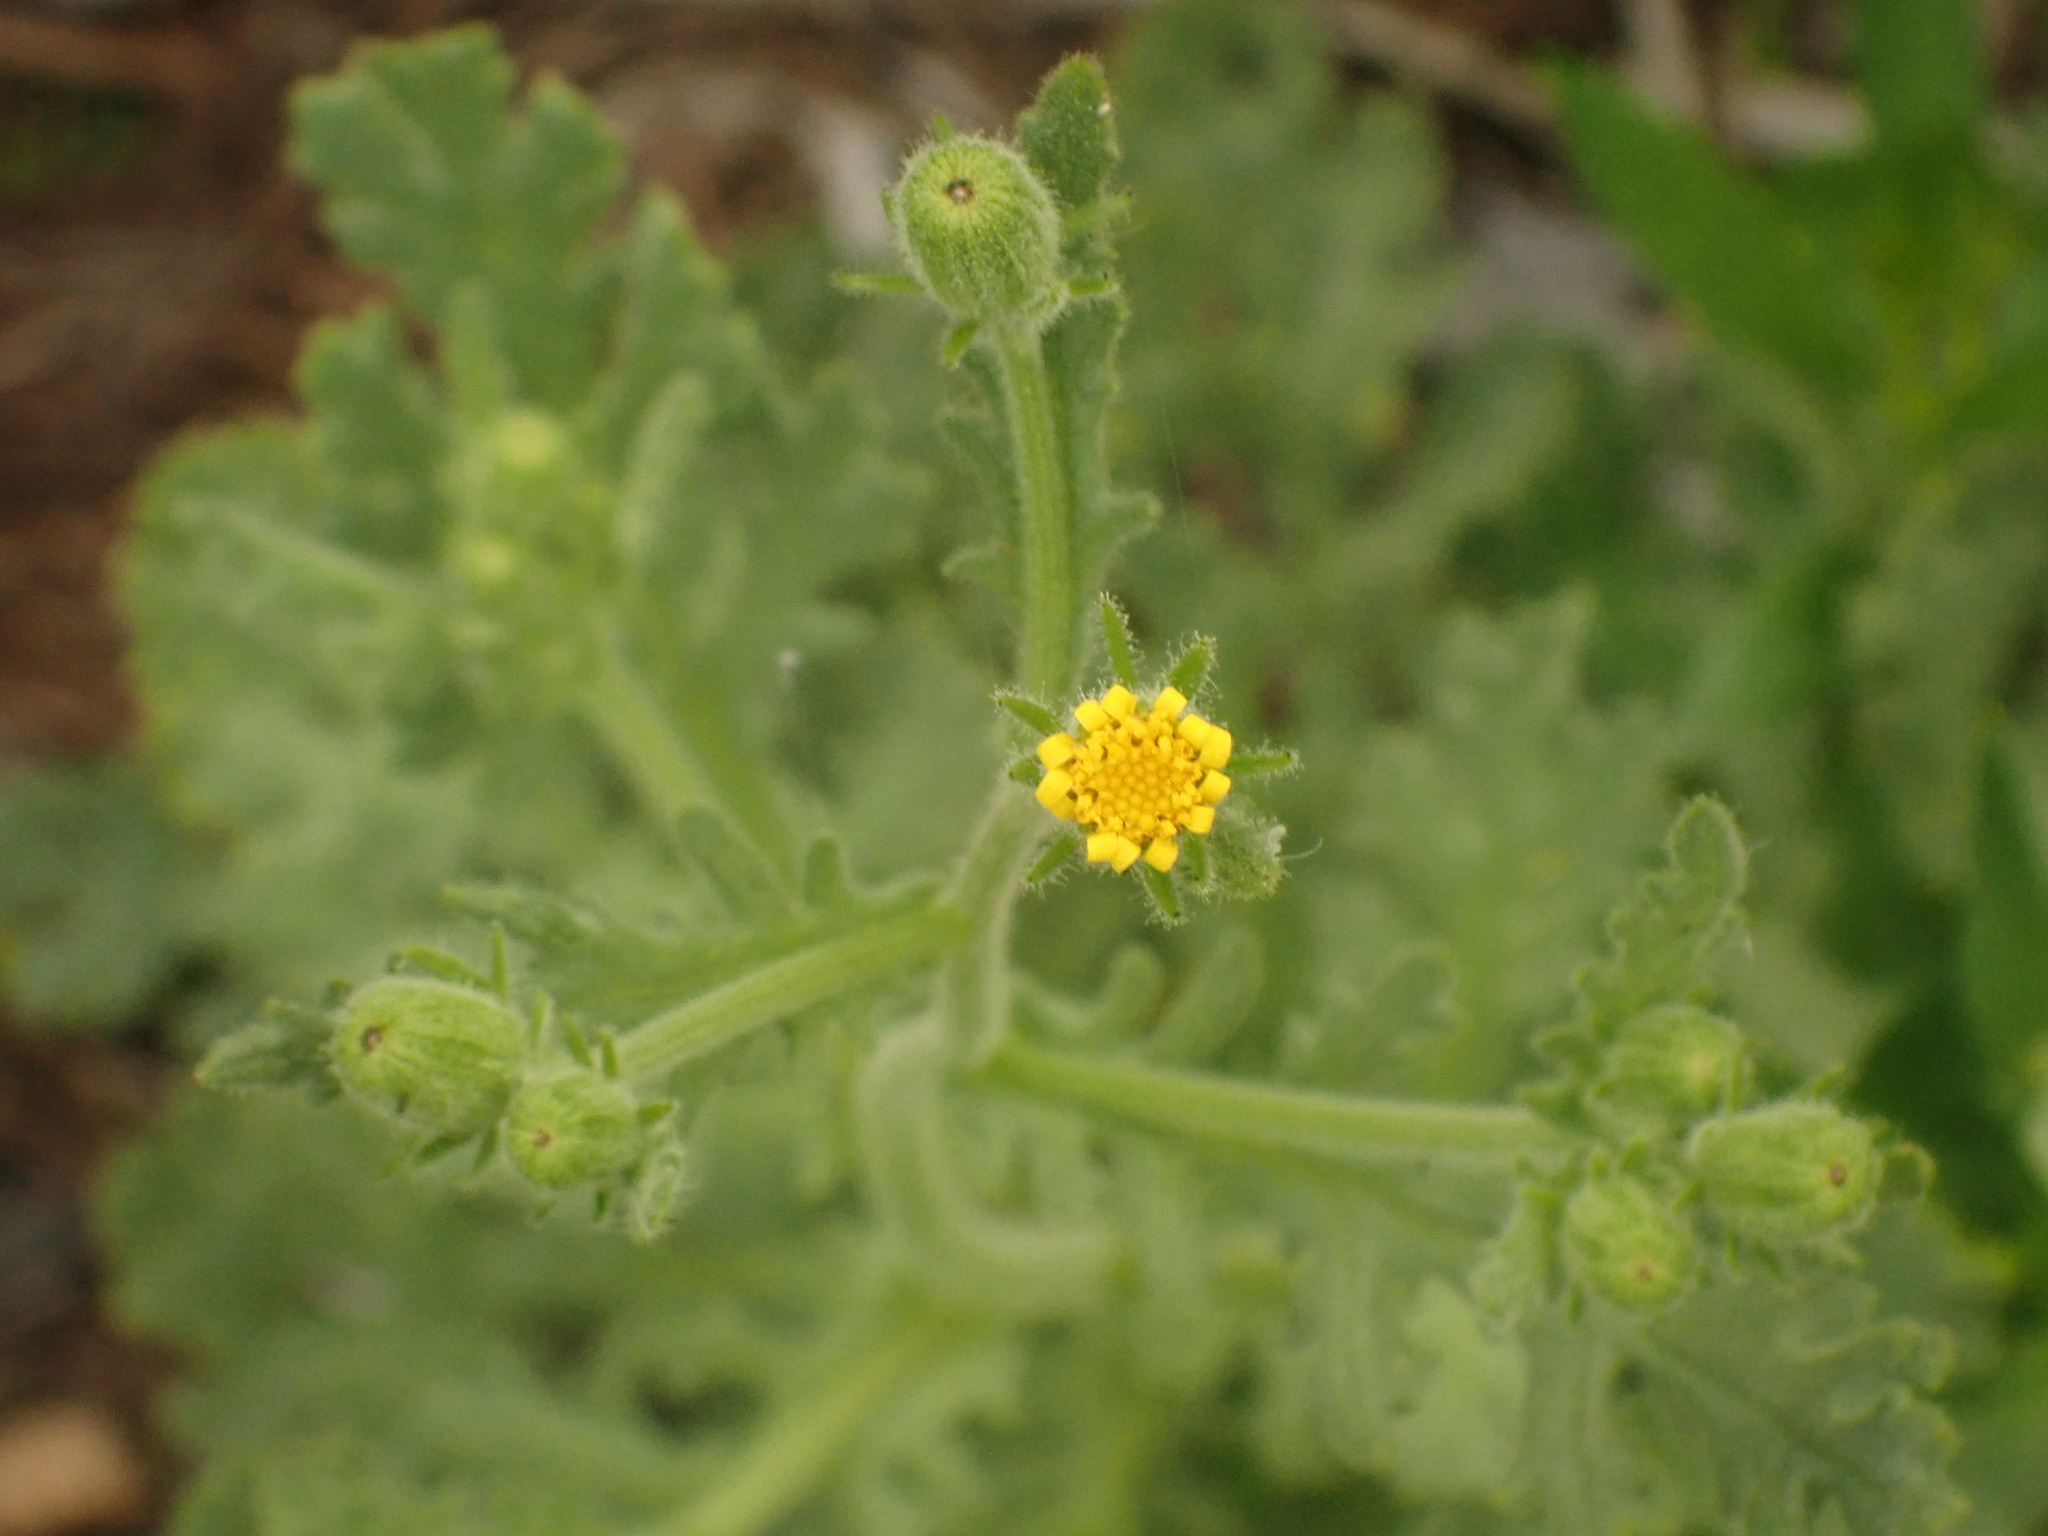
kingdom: Plantae
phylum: Tracheophyta
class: Magnoliopsida
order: Asterales
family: Asteraceae
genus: Senecio
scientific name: Senecio viscosus
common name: Sticky groundsel
